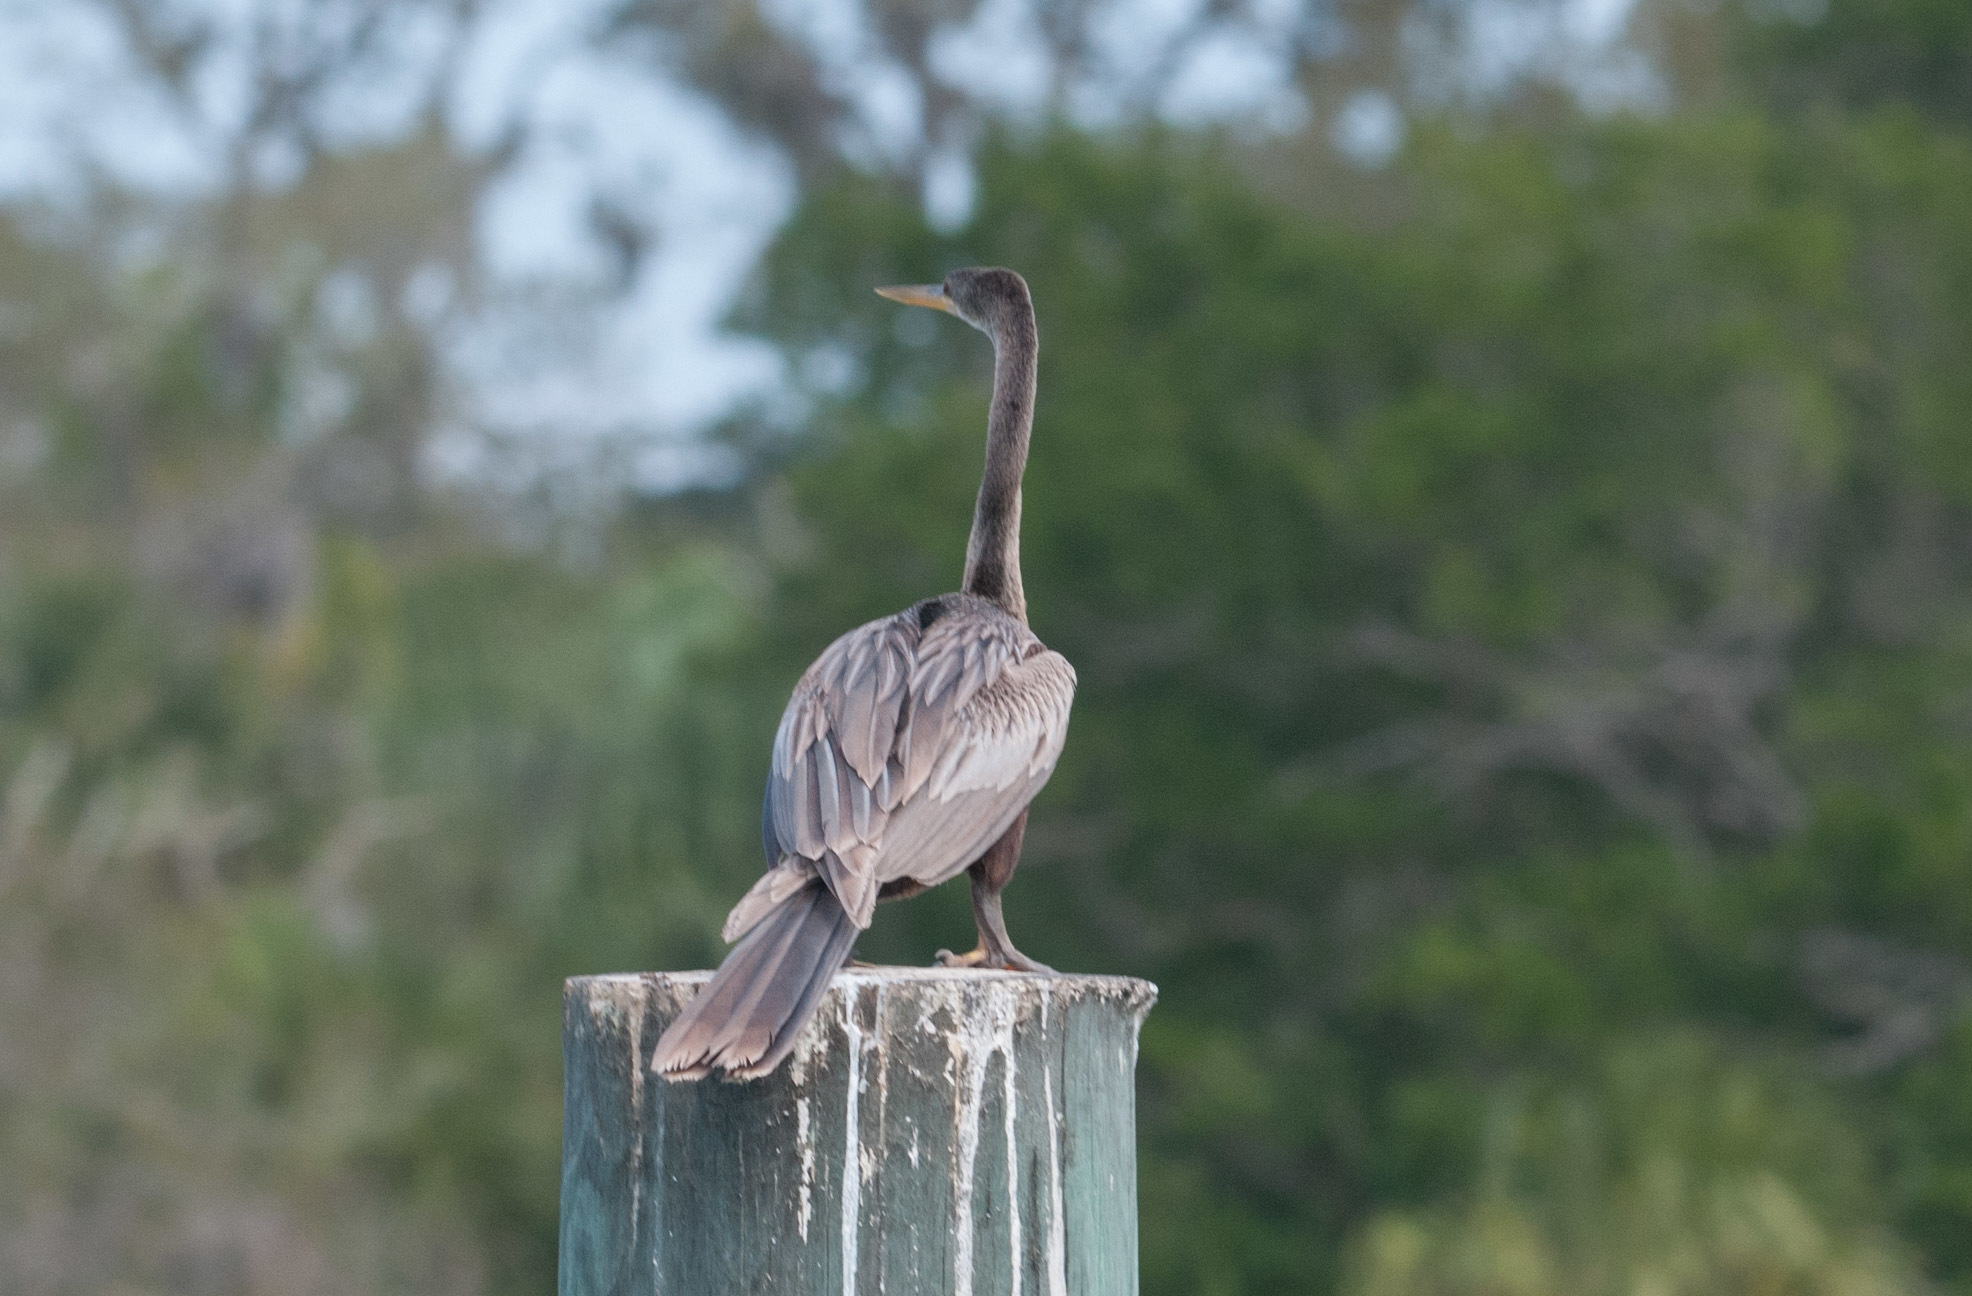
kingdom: Animalia
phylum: Chordata
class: Aves
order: Suliformes
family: Anhingidae
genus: Anhinga
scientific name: Anhinga anhinga
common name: Anhinga
